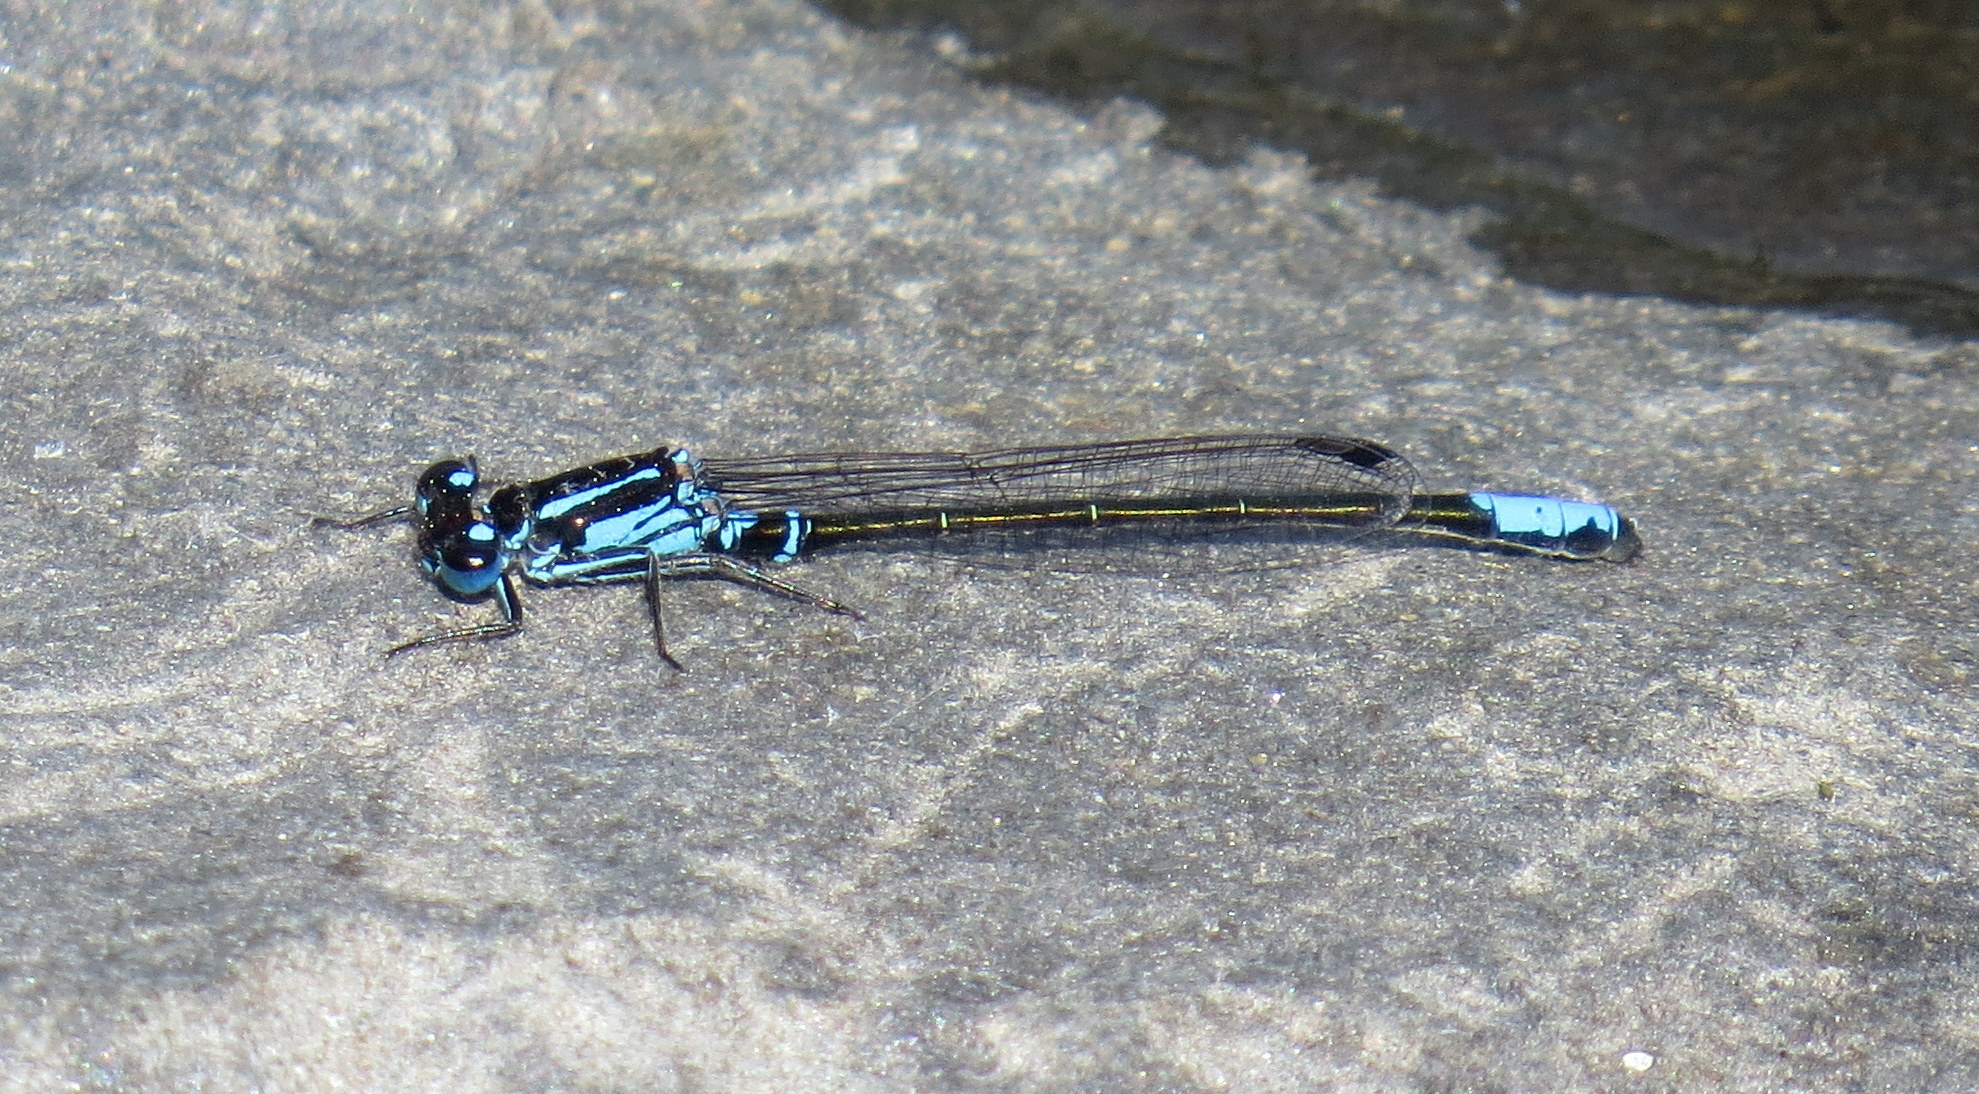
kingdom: Animalia
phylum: Arthropoda
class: Insecta
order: Odonata
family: Coenagrionidae
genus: Ischnura
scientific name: Ischnura kellicotti
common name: Lilypad forktail
